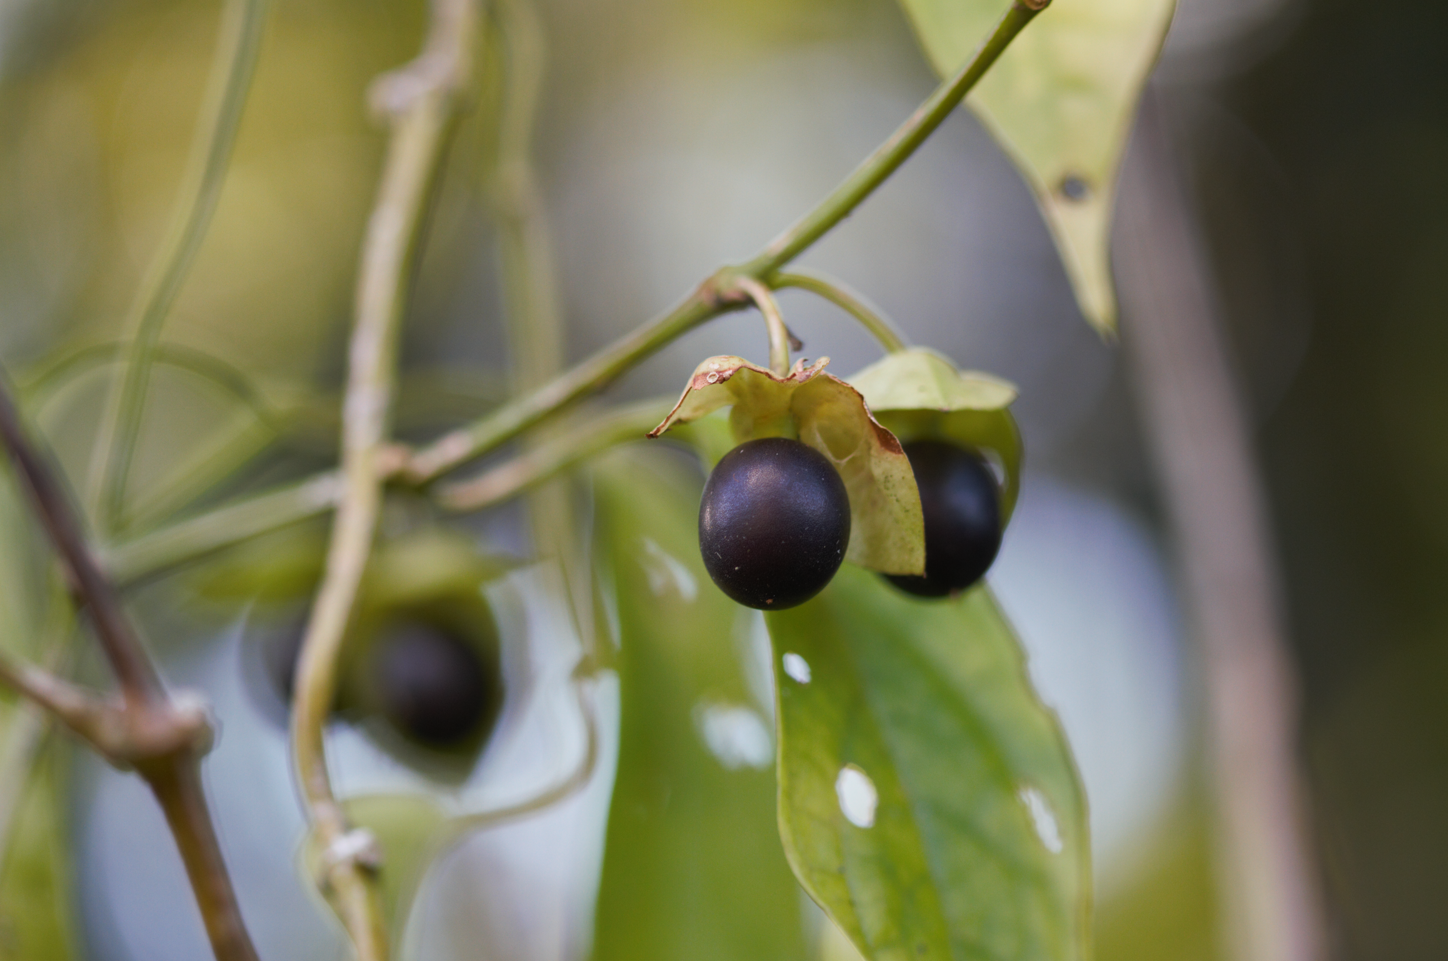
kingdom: Plantae
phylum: Tracheophyta
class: Magnoliopsida
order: Lamiales
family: Acanthaceae
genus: Mendoncia
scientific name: Mendoncia glabra
